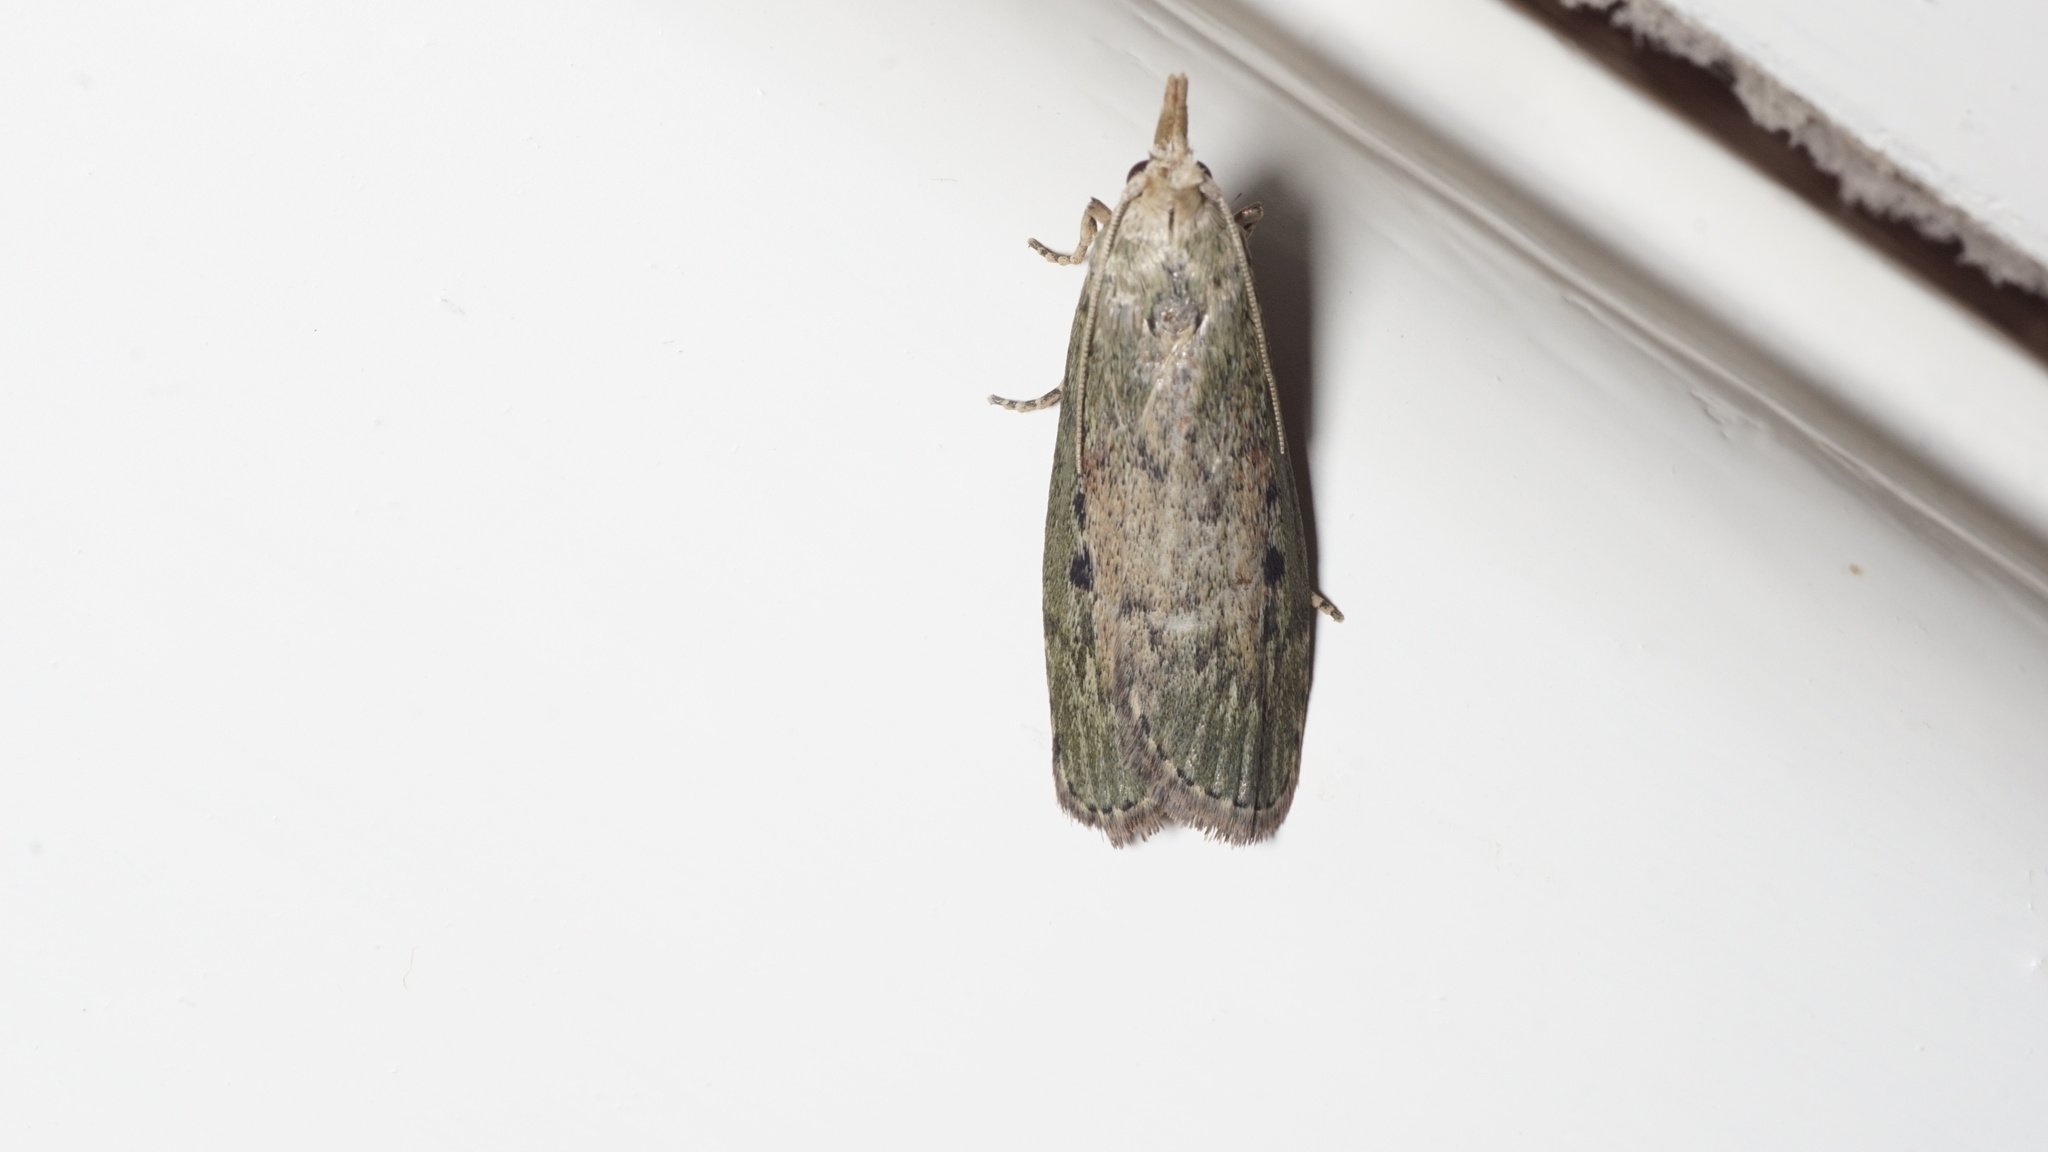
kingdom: Animalia
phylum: Arthropoda
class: Insecta
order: Lepidoptera
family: Pyralidae
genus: Aphomia
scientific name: Aphomia sociella
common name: Bee moth
